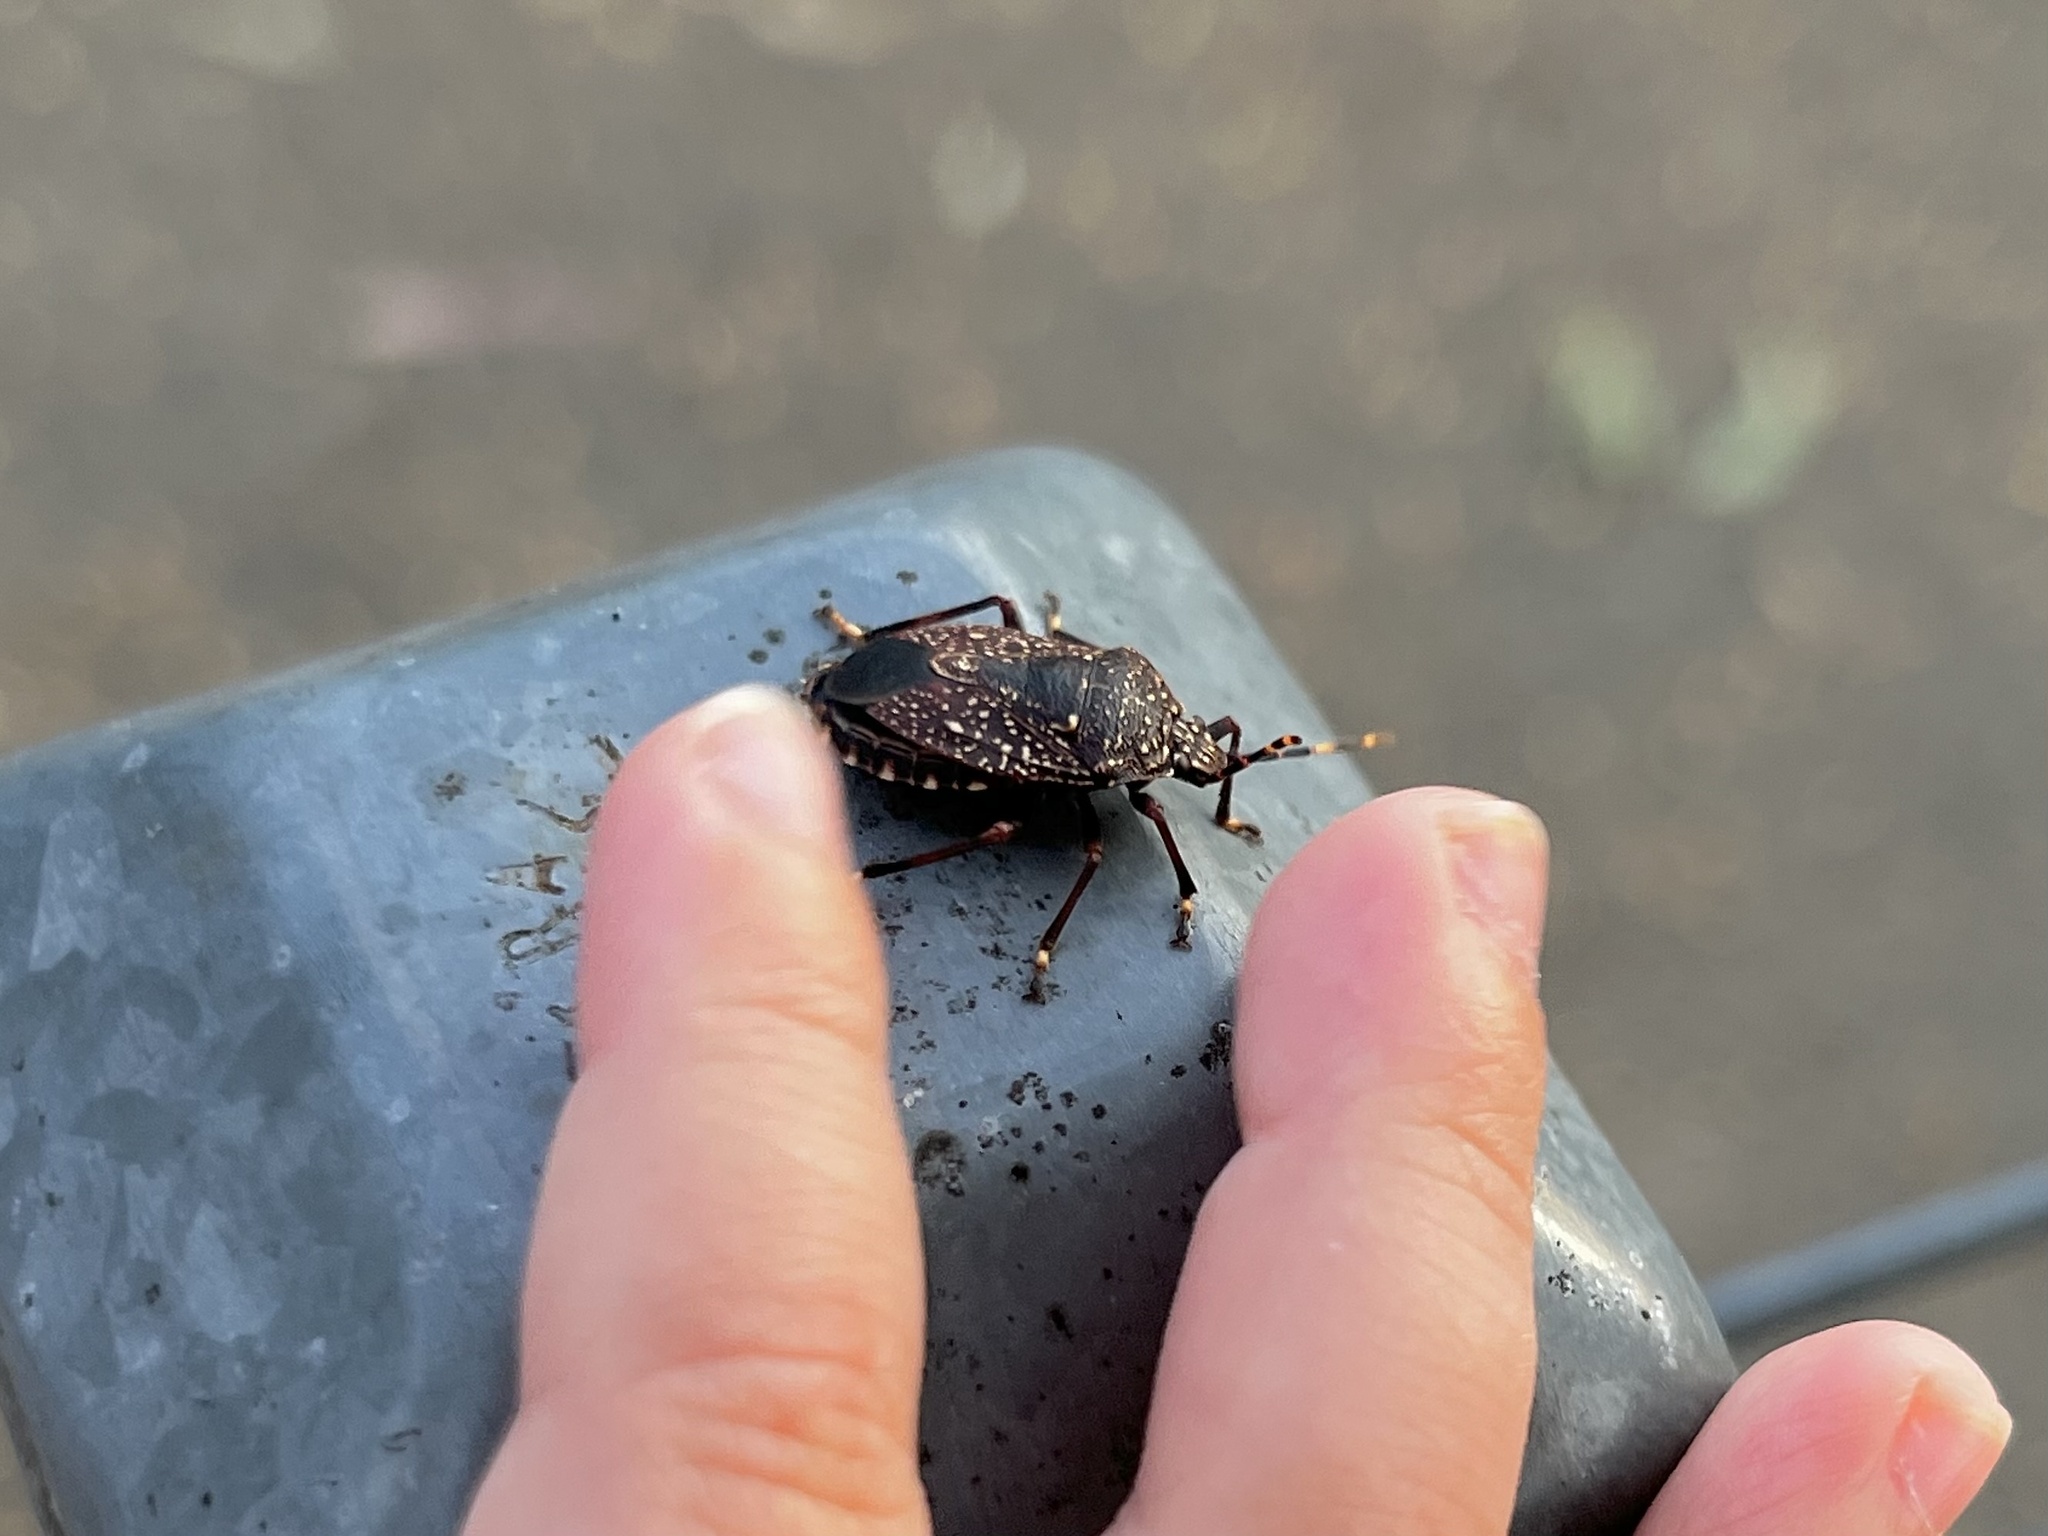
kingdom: Animalia
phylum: Arthropoda
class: Insecta
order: Hemiptera
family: Pentatomidae
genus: Notius
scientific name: Notius
